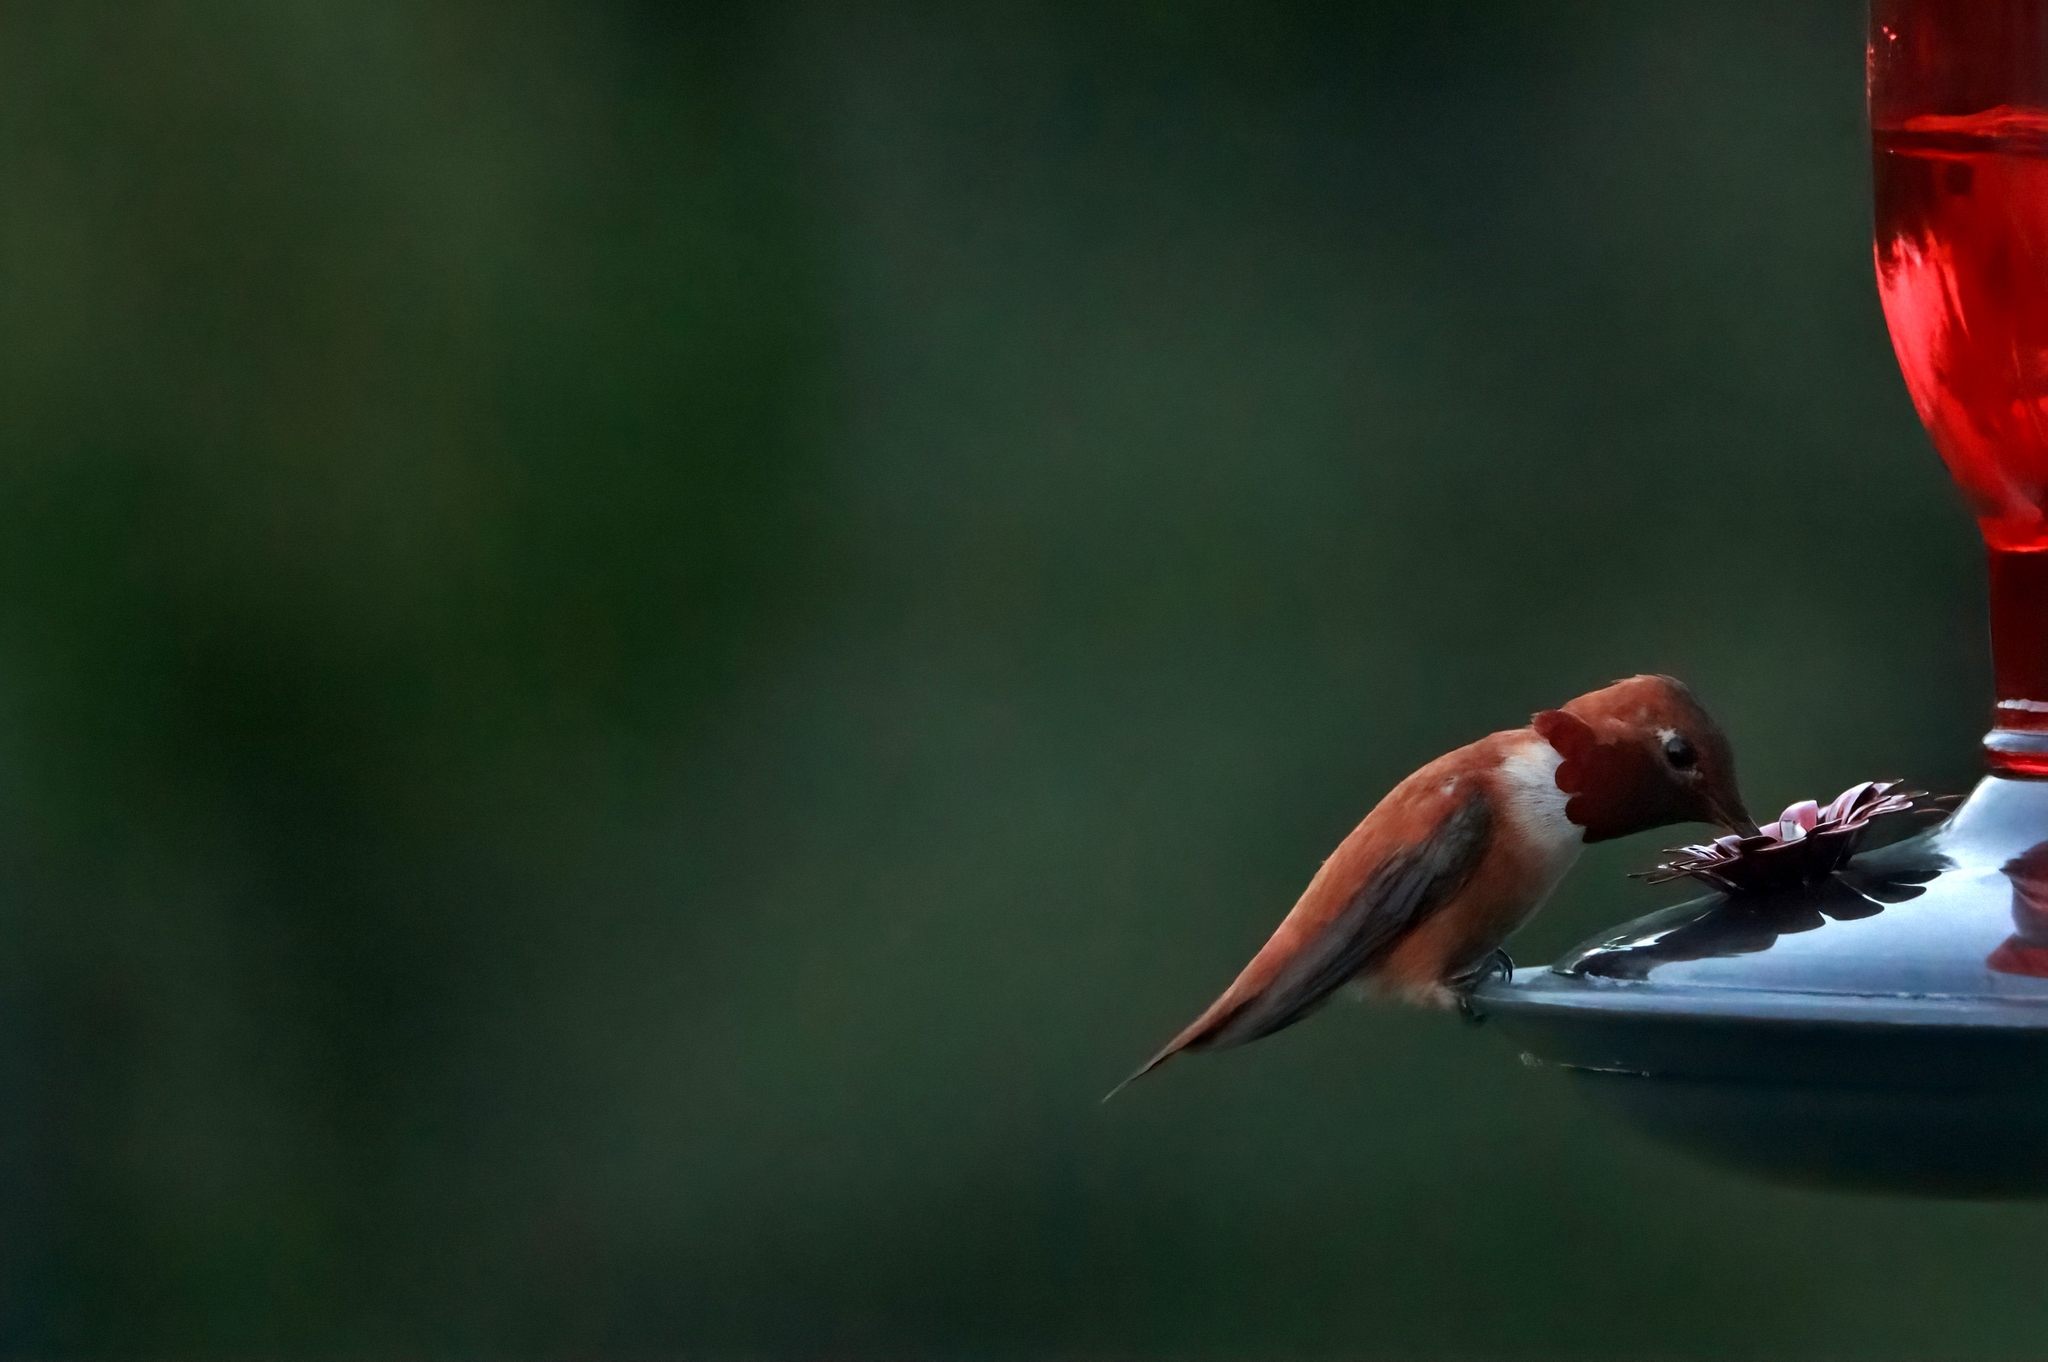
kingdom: Animalia
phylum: Chordata
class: Aves
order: Apodiformes
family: Trochilidae
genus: Selasphorus
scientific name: Selasphorus rufus
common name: Rufous hummingbird
